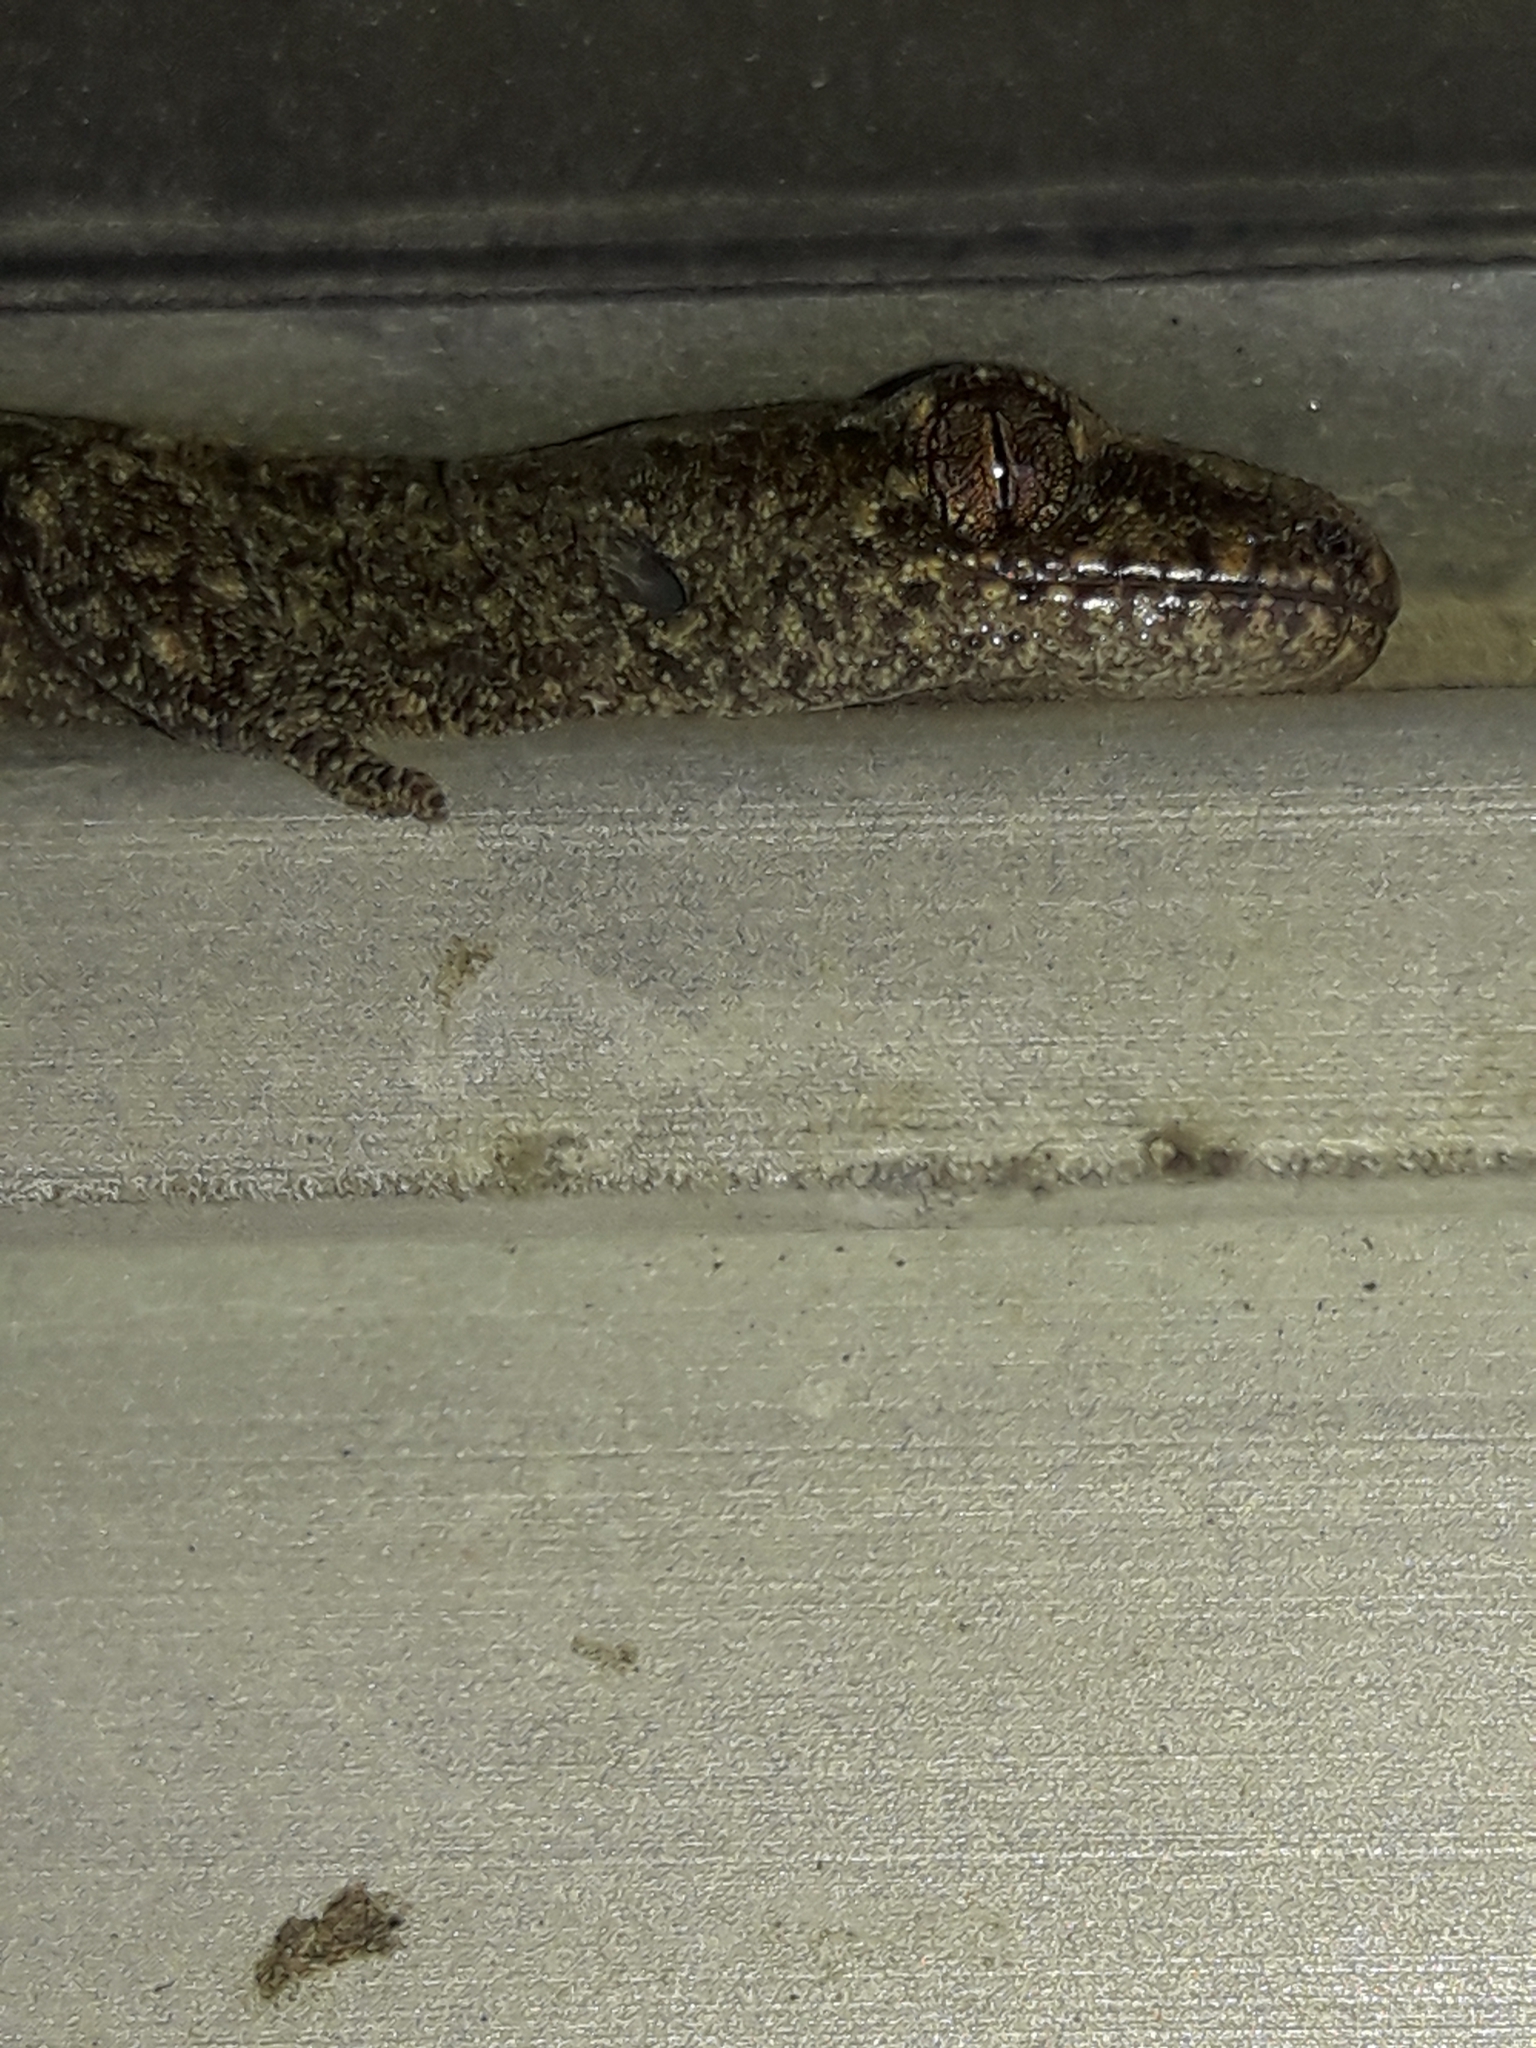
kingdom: Animalia
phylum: Chordata
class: Squamata
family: Diplodactylidae
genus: Woodworthia
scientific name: Woodworthia maculata
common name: Raukawa gecko
